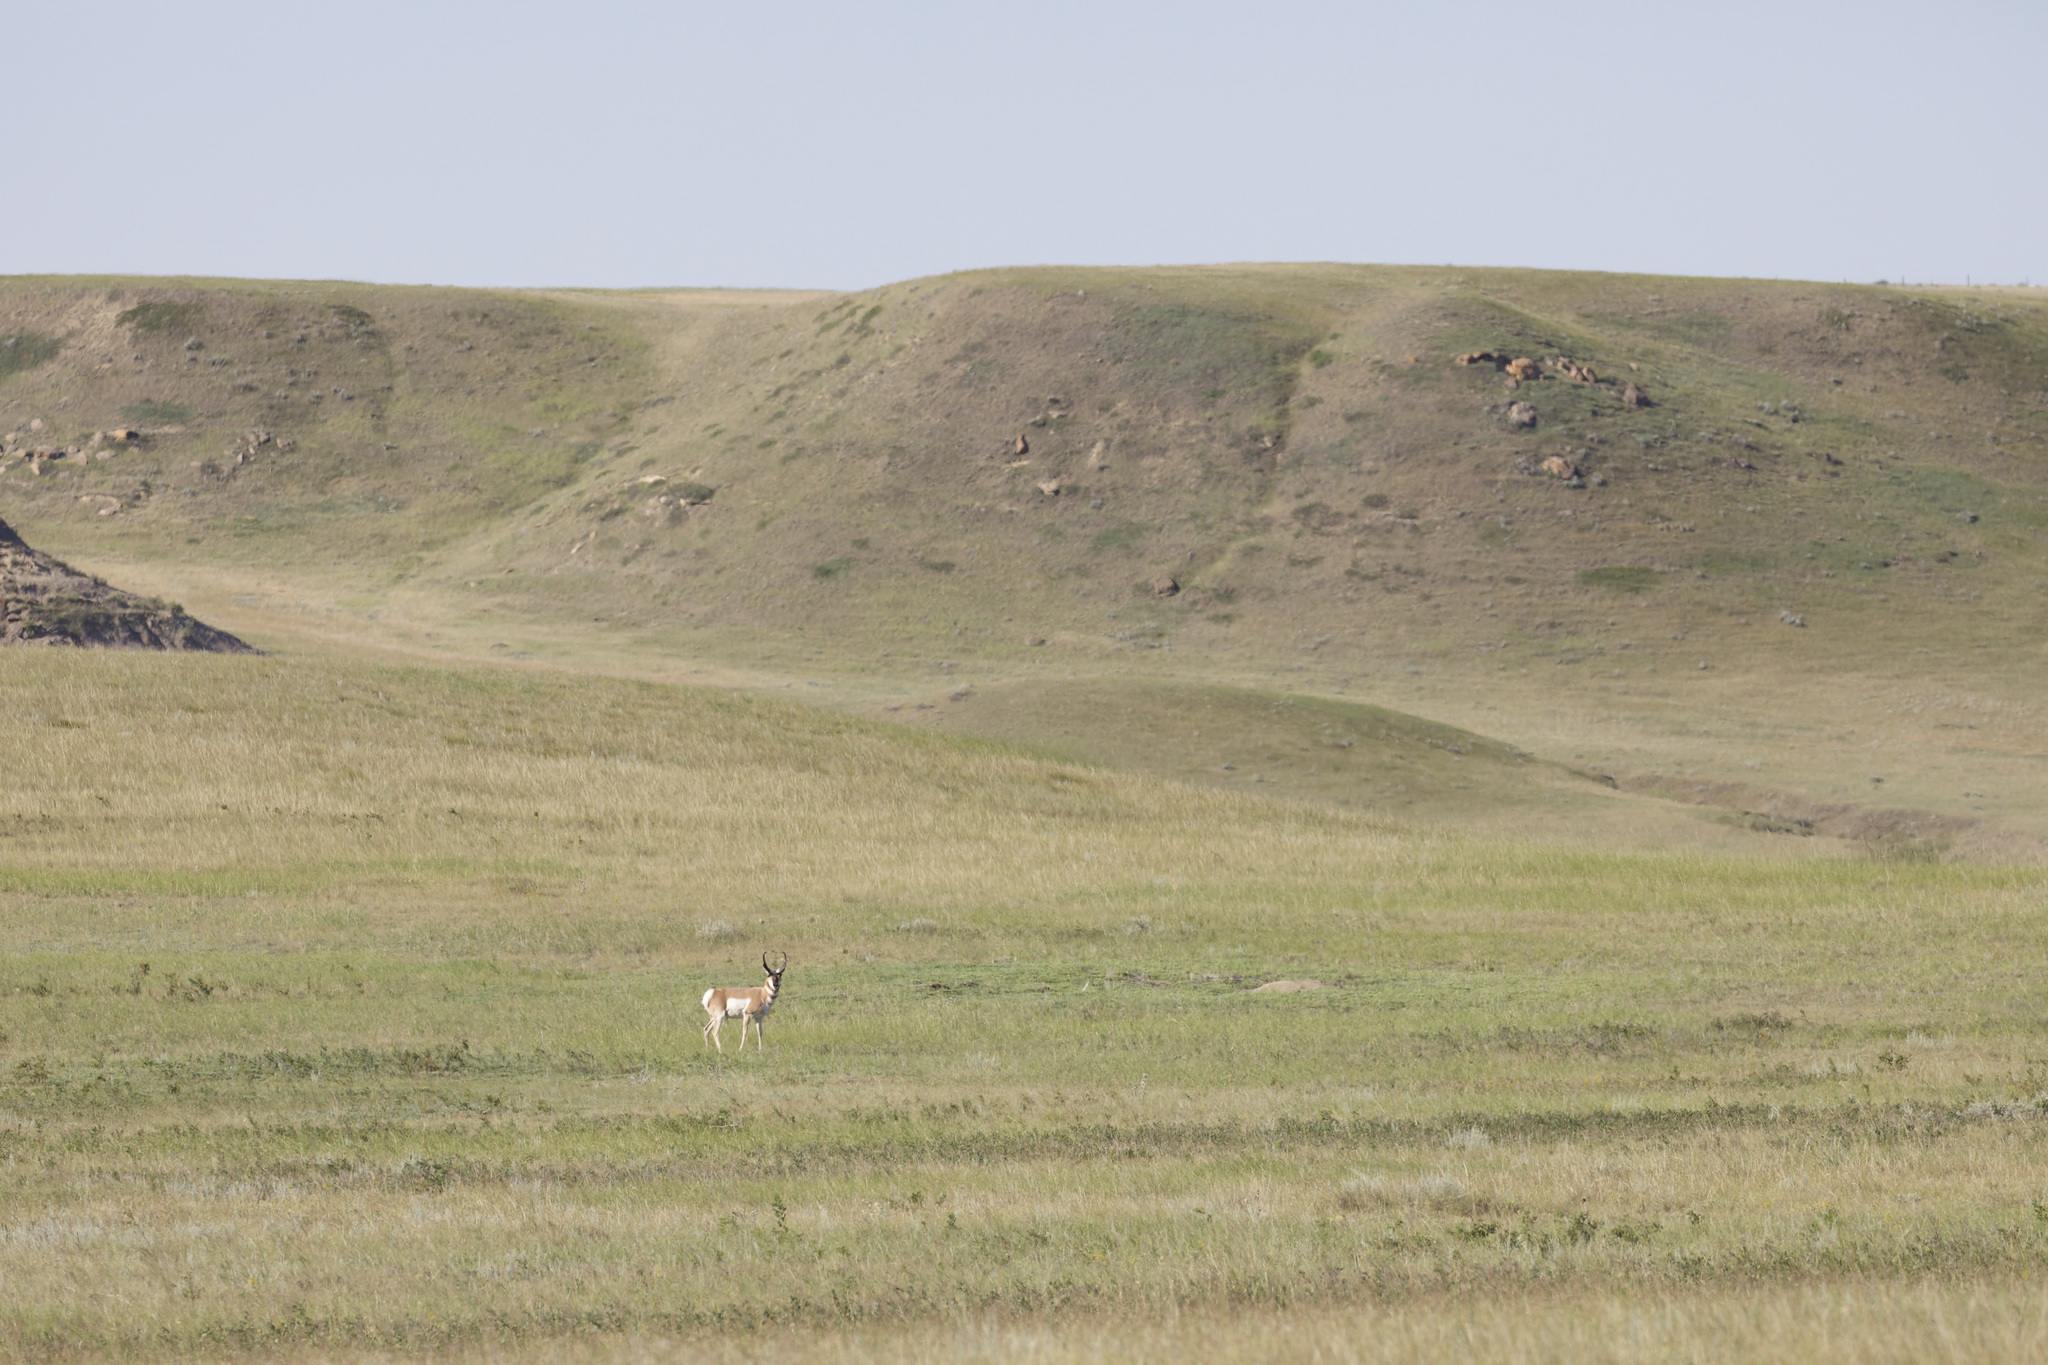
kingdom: Animalia
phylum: Chordata
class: Mammalia
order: Artiodactyla
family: Antilocapridae
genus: Antilocapra
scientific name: Antilocapra americana
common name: Pronghorn
